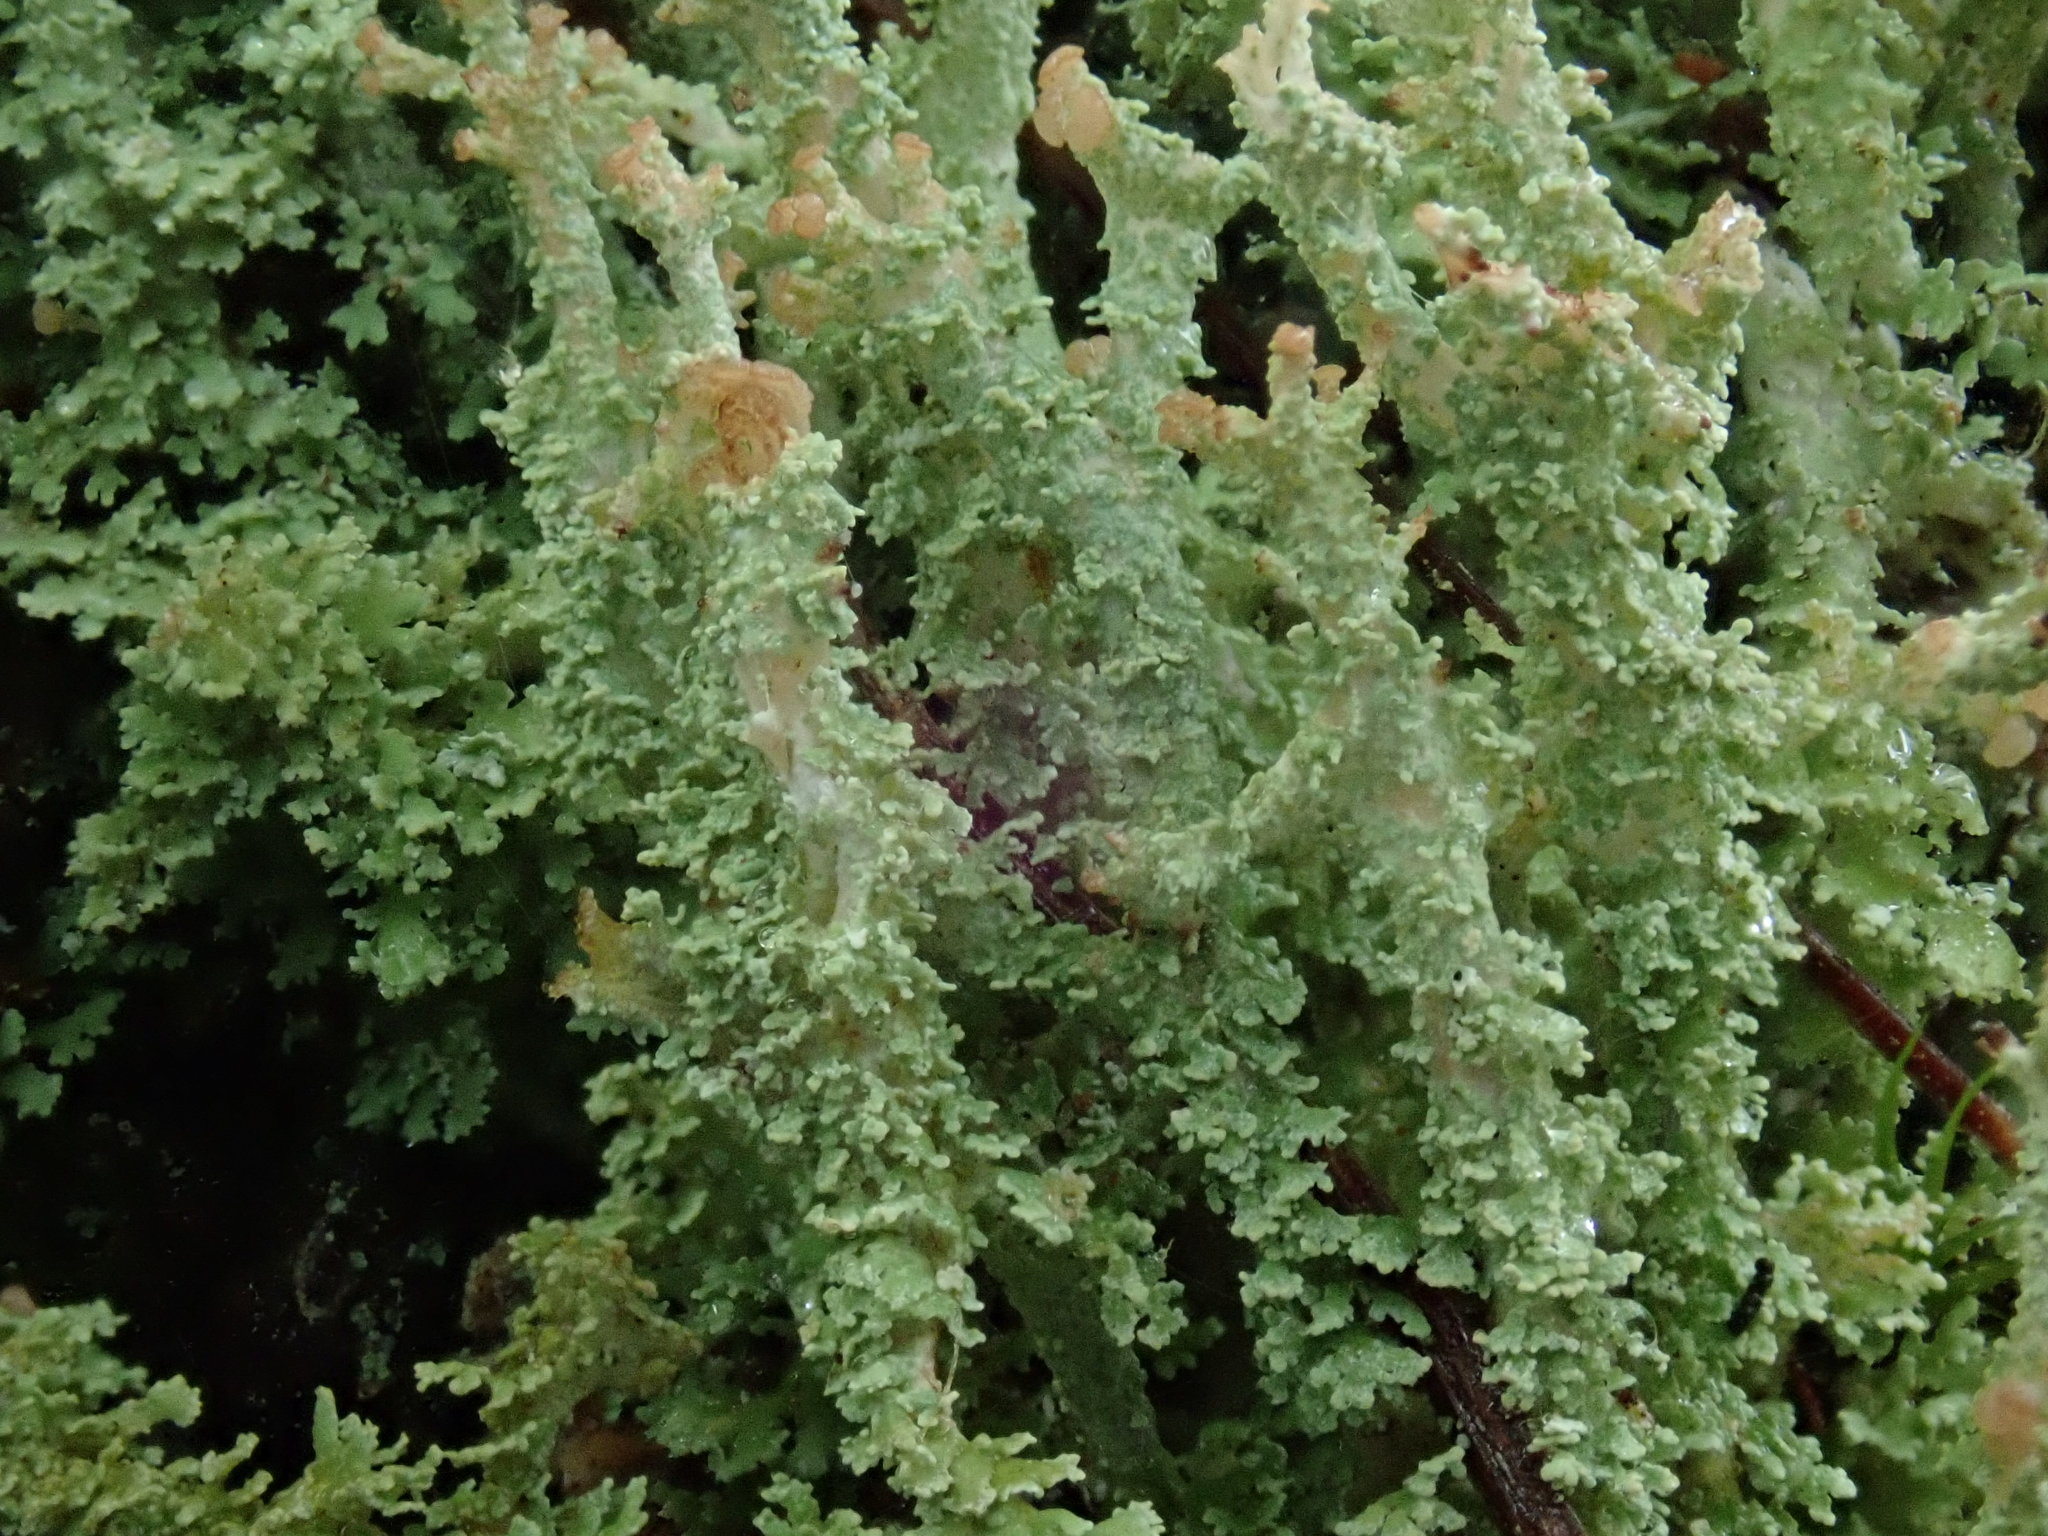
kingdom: Fungi
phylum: Ascomycota
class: Lecanoromycetes
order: Lecanorales
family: Cladoniaceae
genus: Cladonia
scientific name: Cladonia squamosa
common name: Dragon horn
